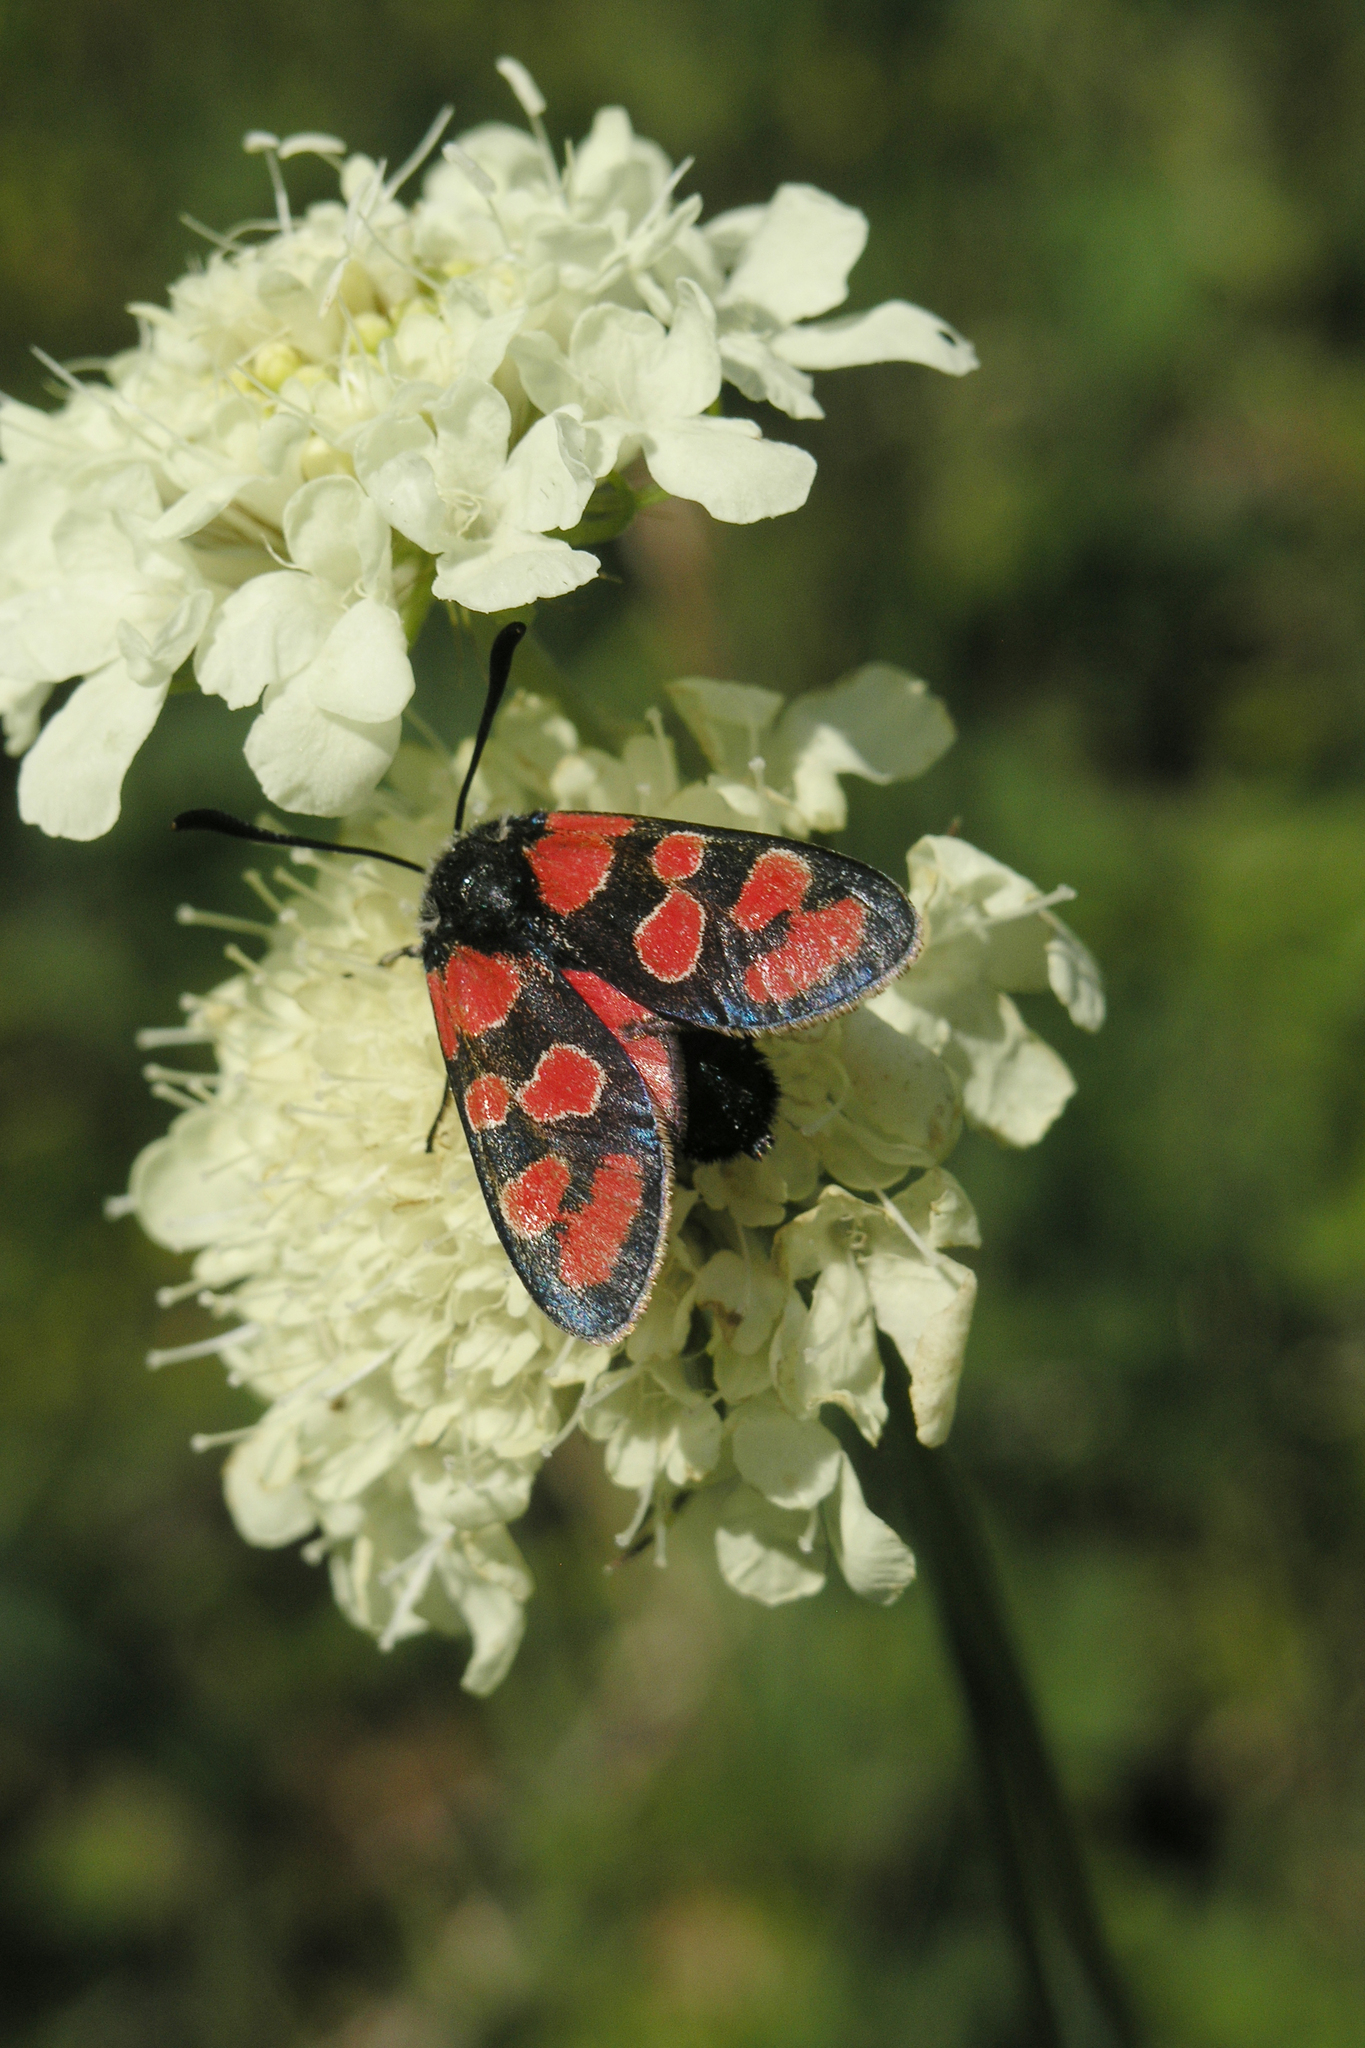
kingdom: Plantae
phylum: Tracheophyta
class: Magnoliopsida
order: Dipsacales
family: Caprifoliaceae
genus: Scabiosa
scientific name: Scabiosa ochroleuca
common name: Cream pincushions
